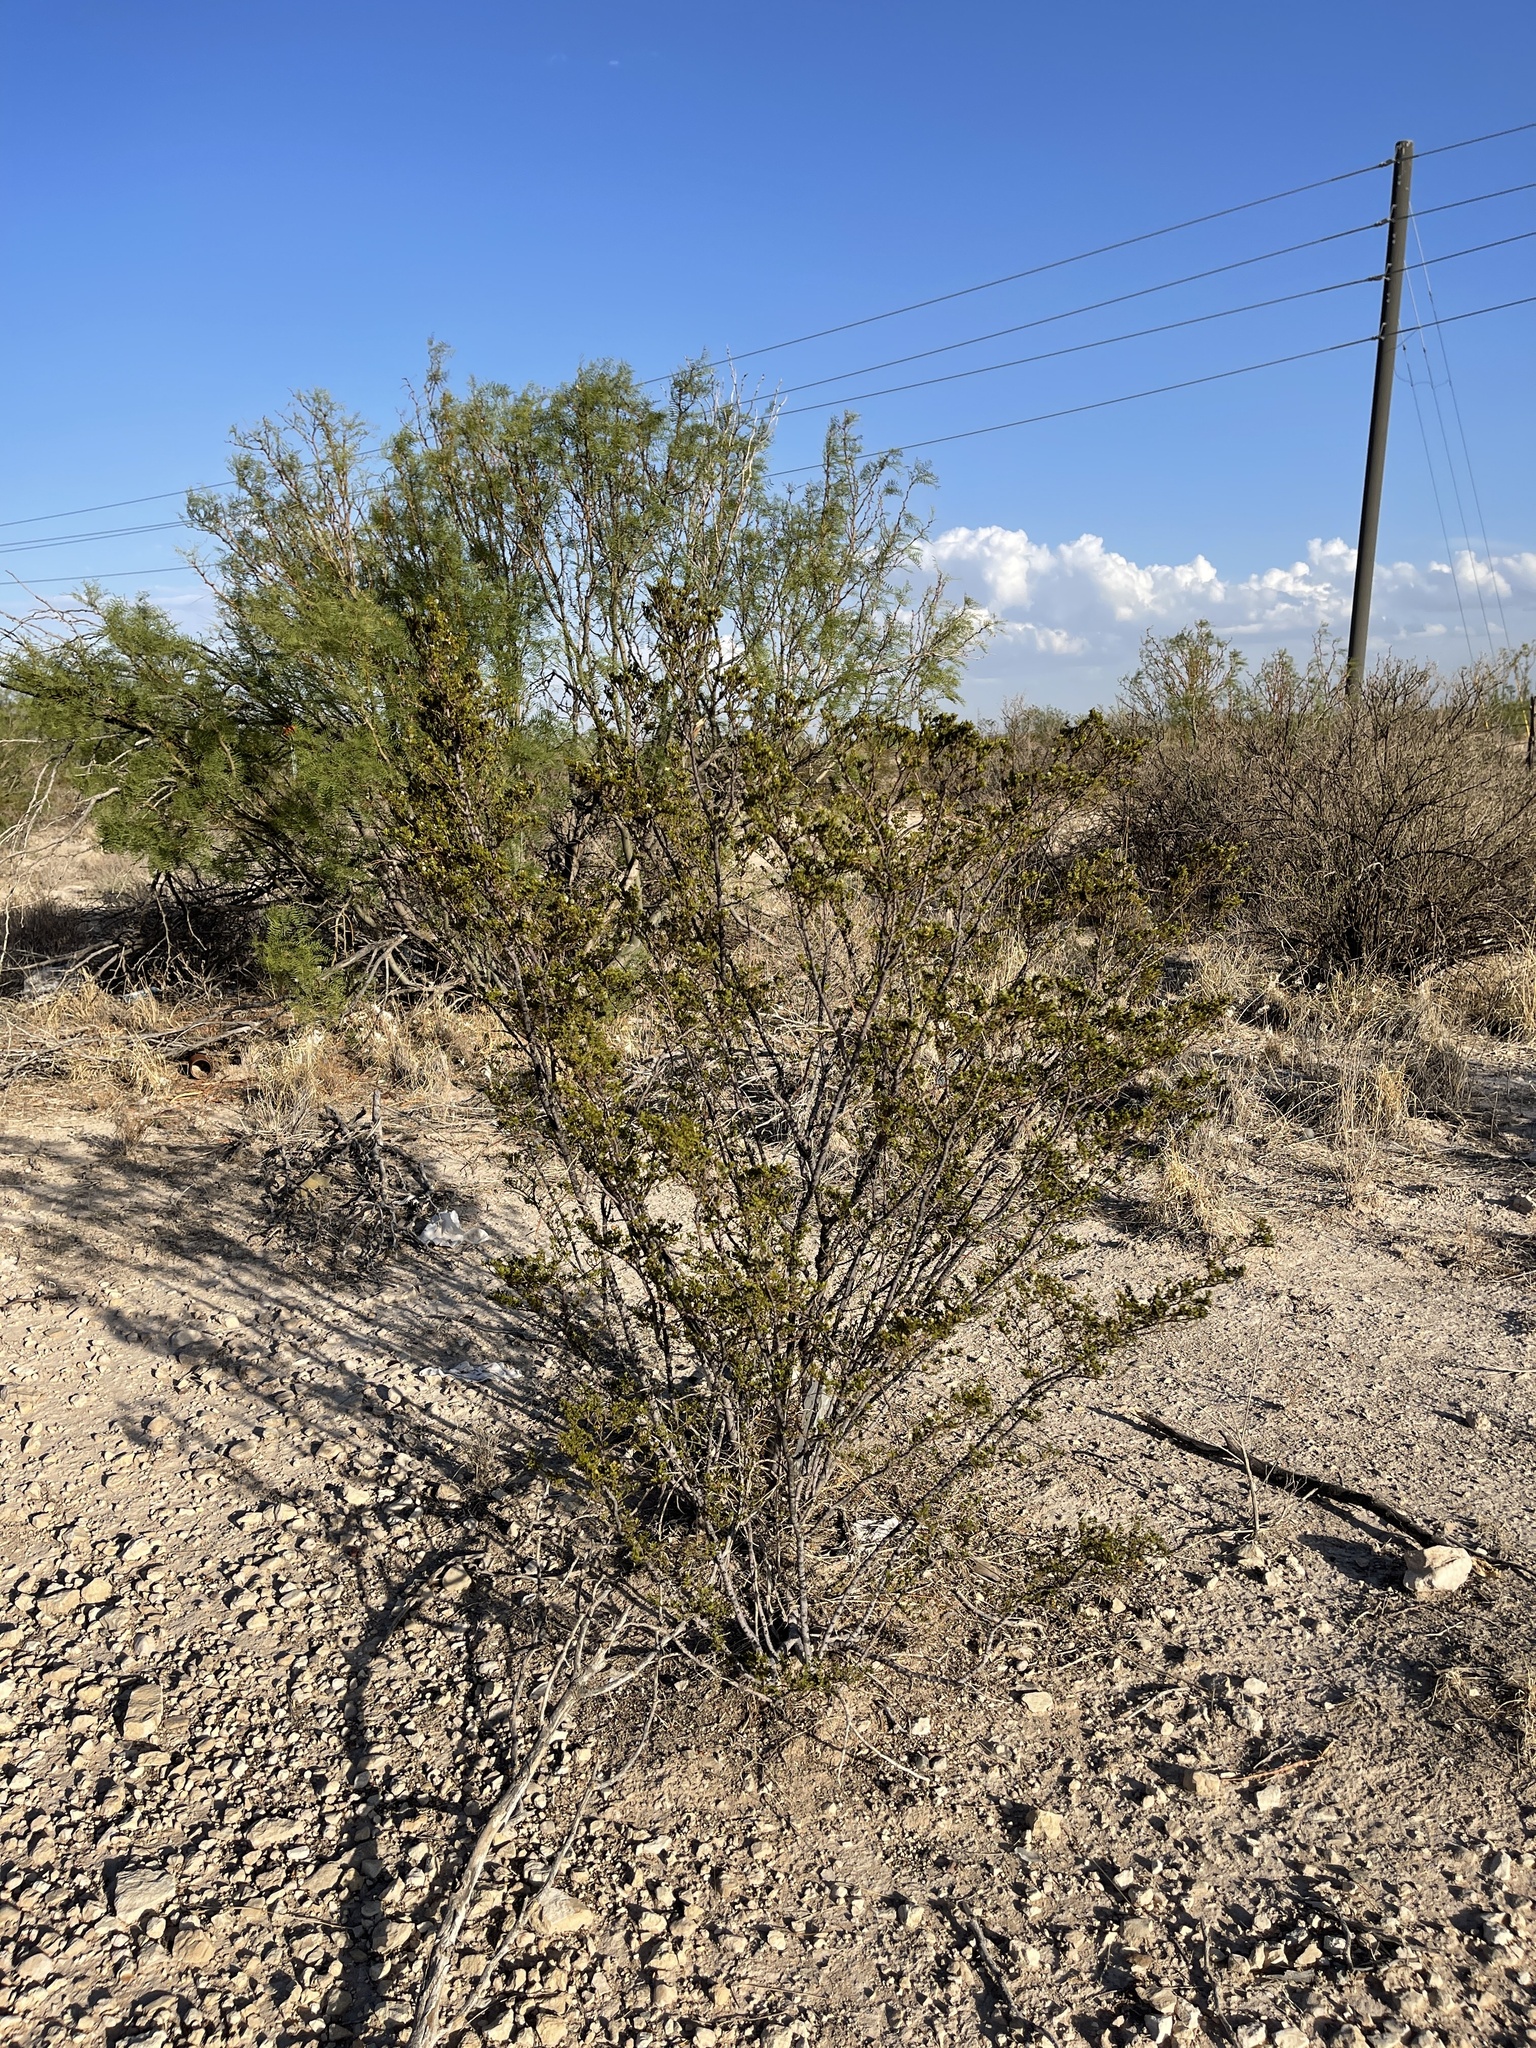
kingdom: Plantae
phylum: Tracheophyta
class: Magnoliopsida
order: Zygophyllales
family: Zygophyllaceae
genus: Larrea
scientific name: Larrea tridentata
